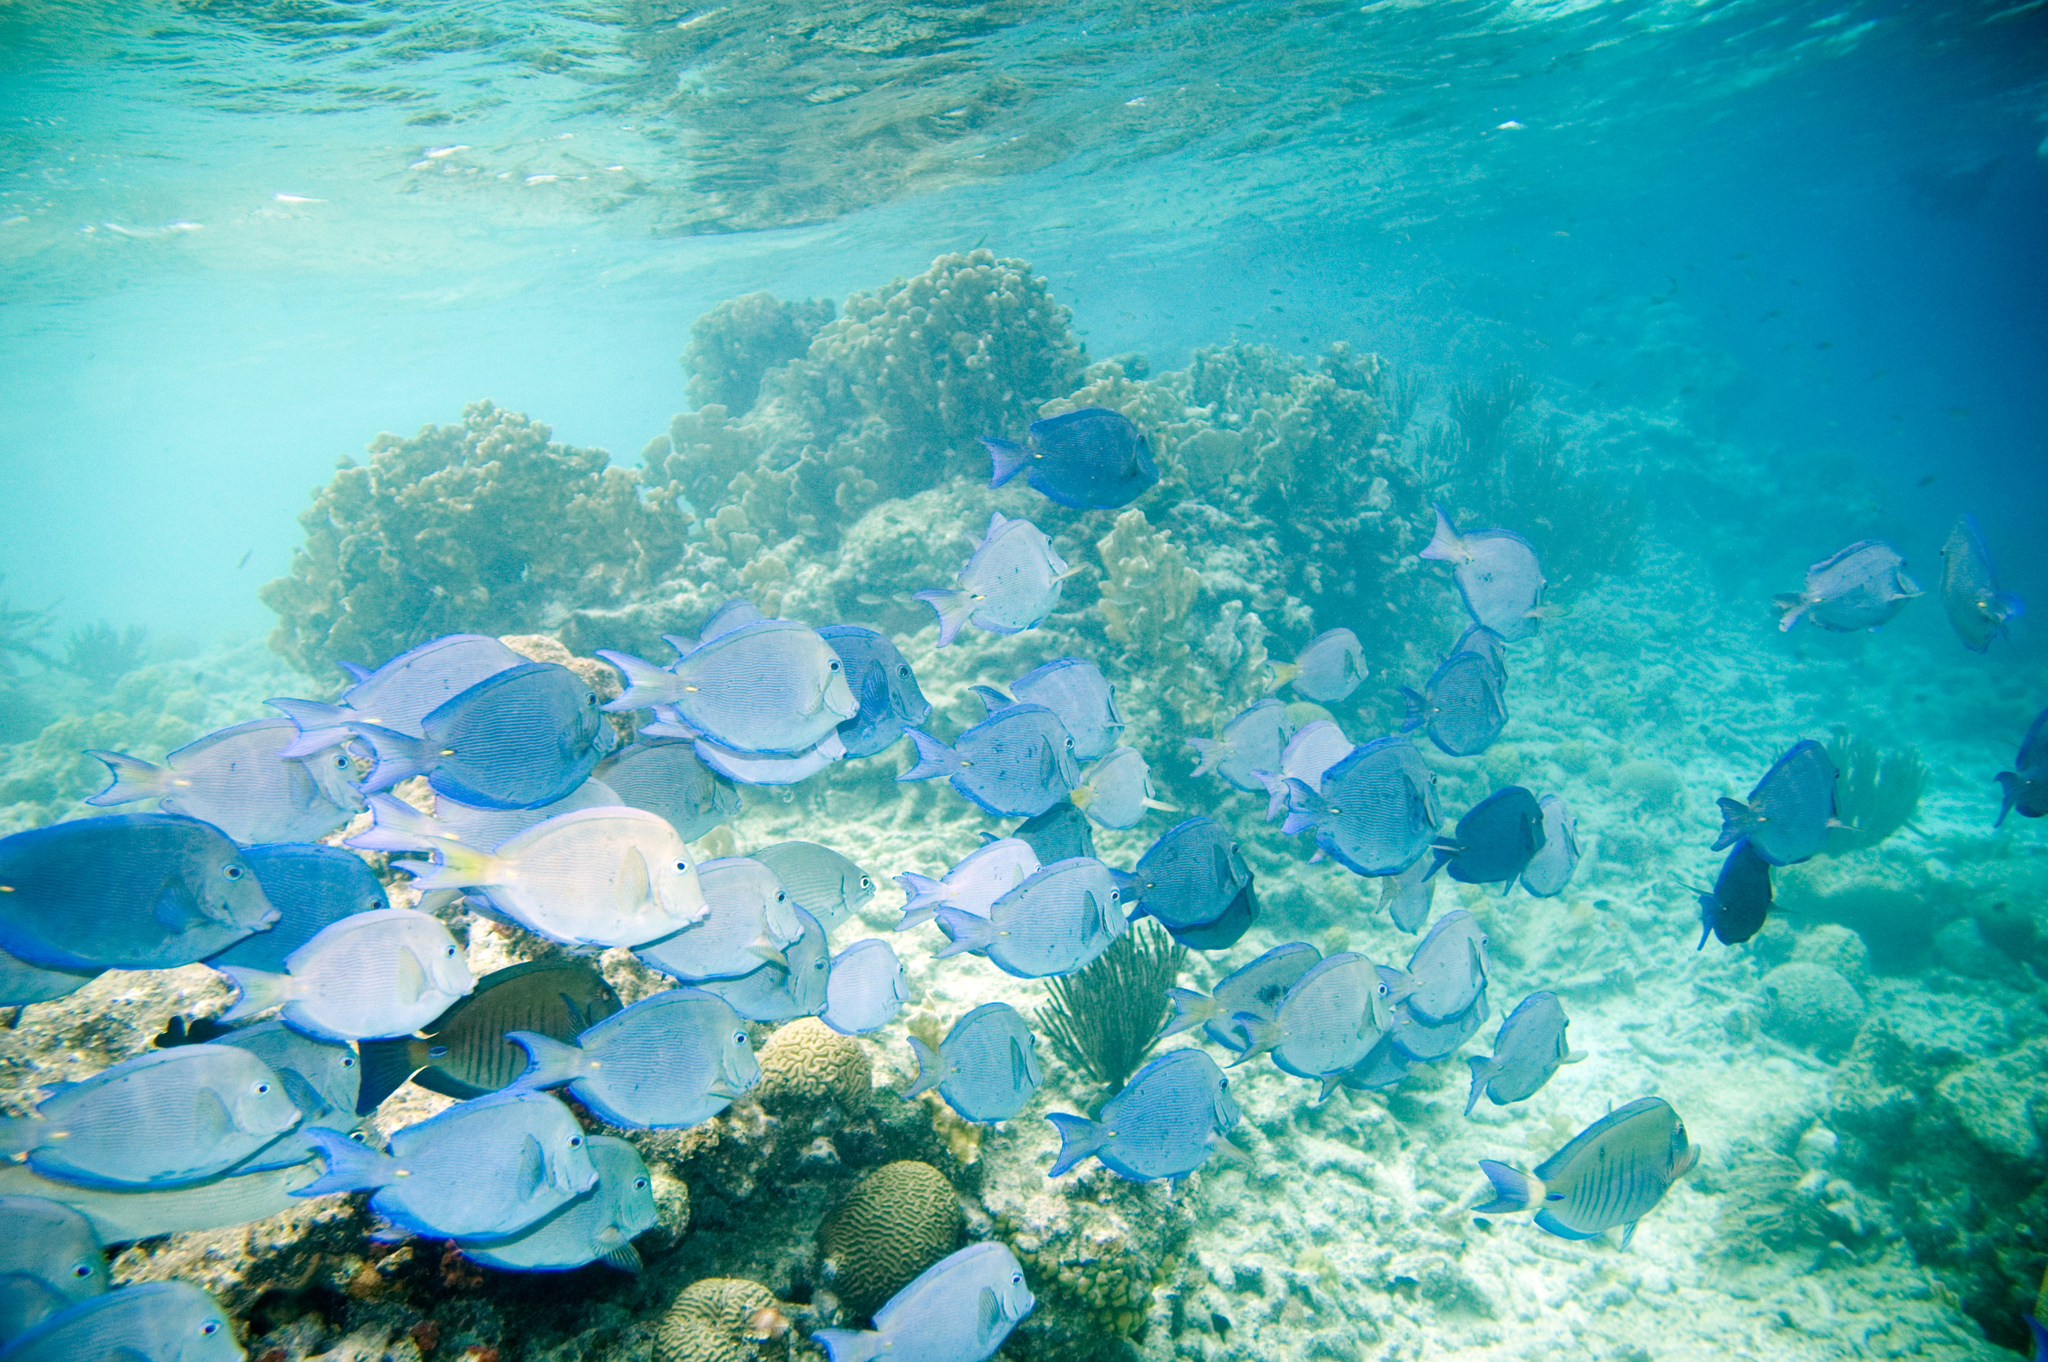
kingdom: Animalia
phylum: Chordata
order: Perciformes
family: Acanthuridae
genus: Acanthurus
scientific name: Acanthurus coeruleus
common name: Blue tang
